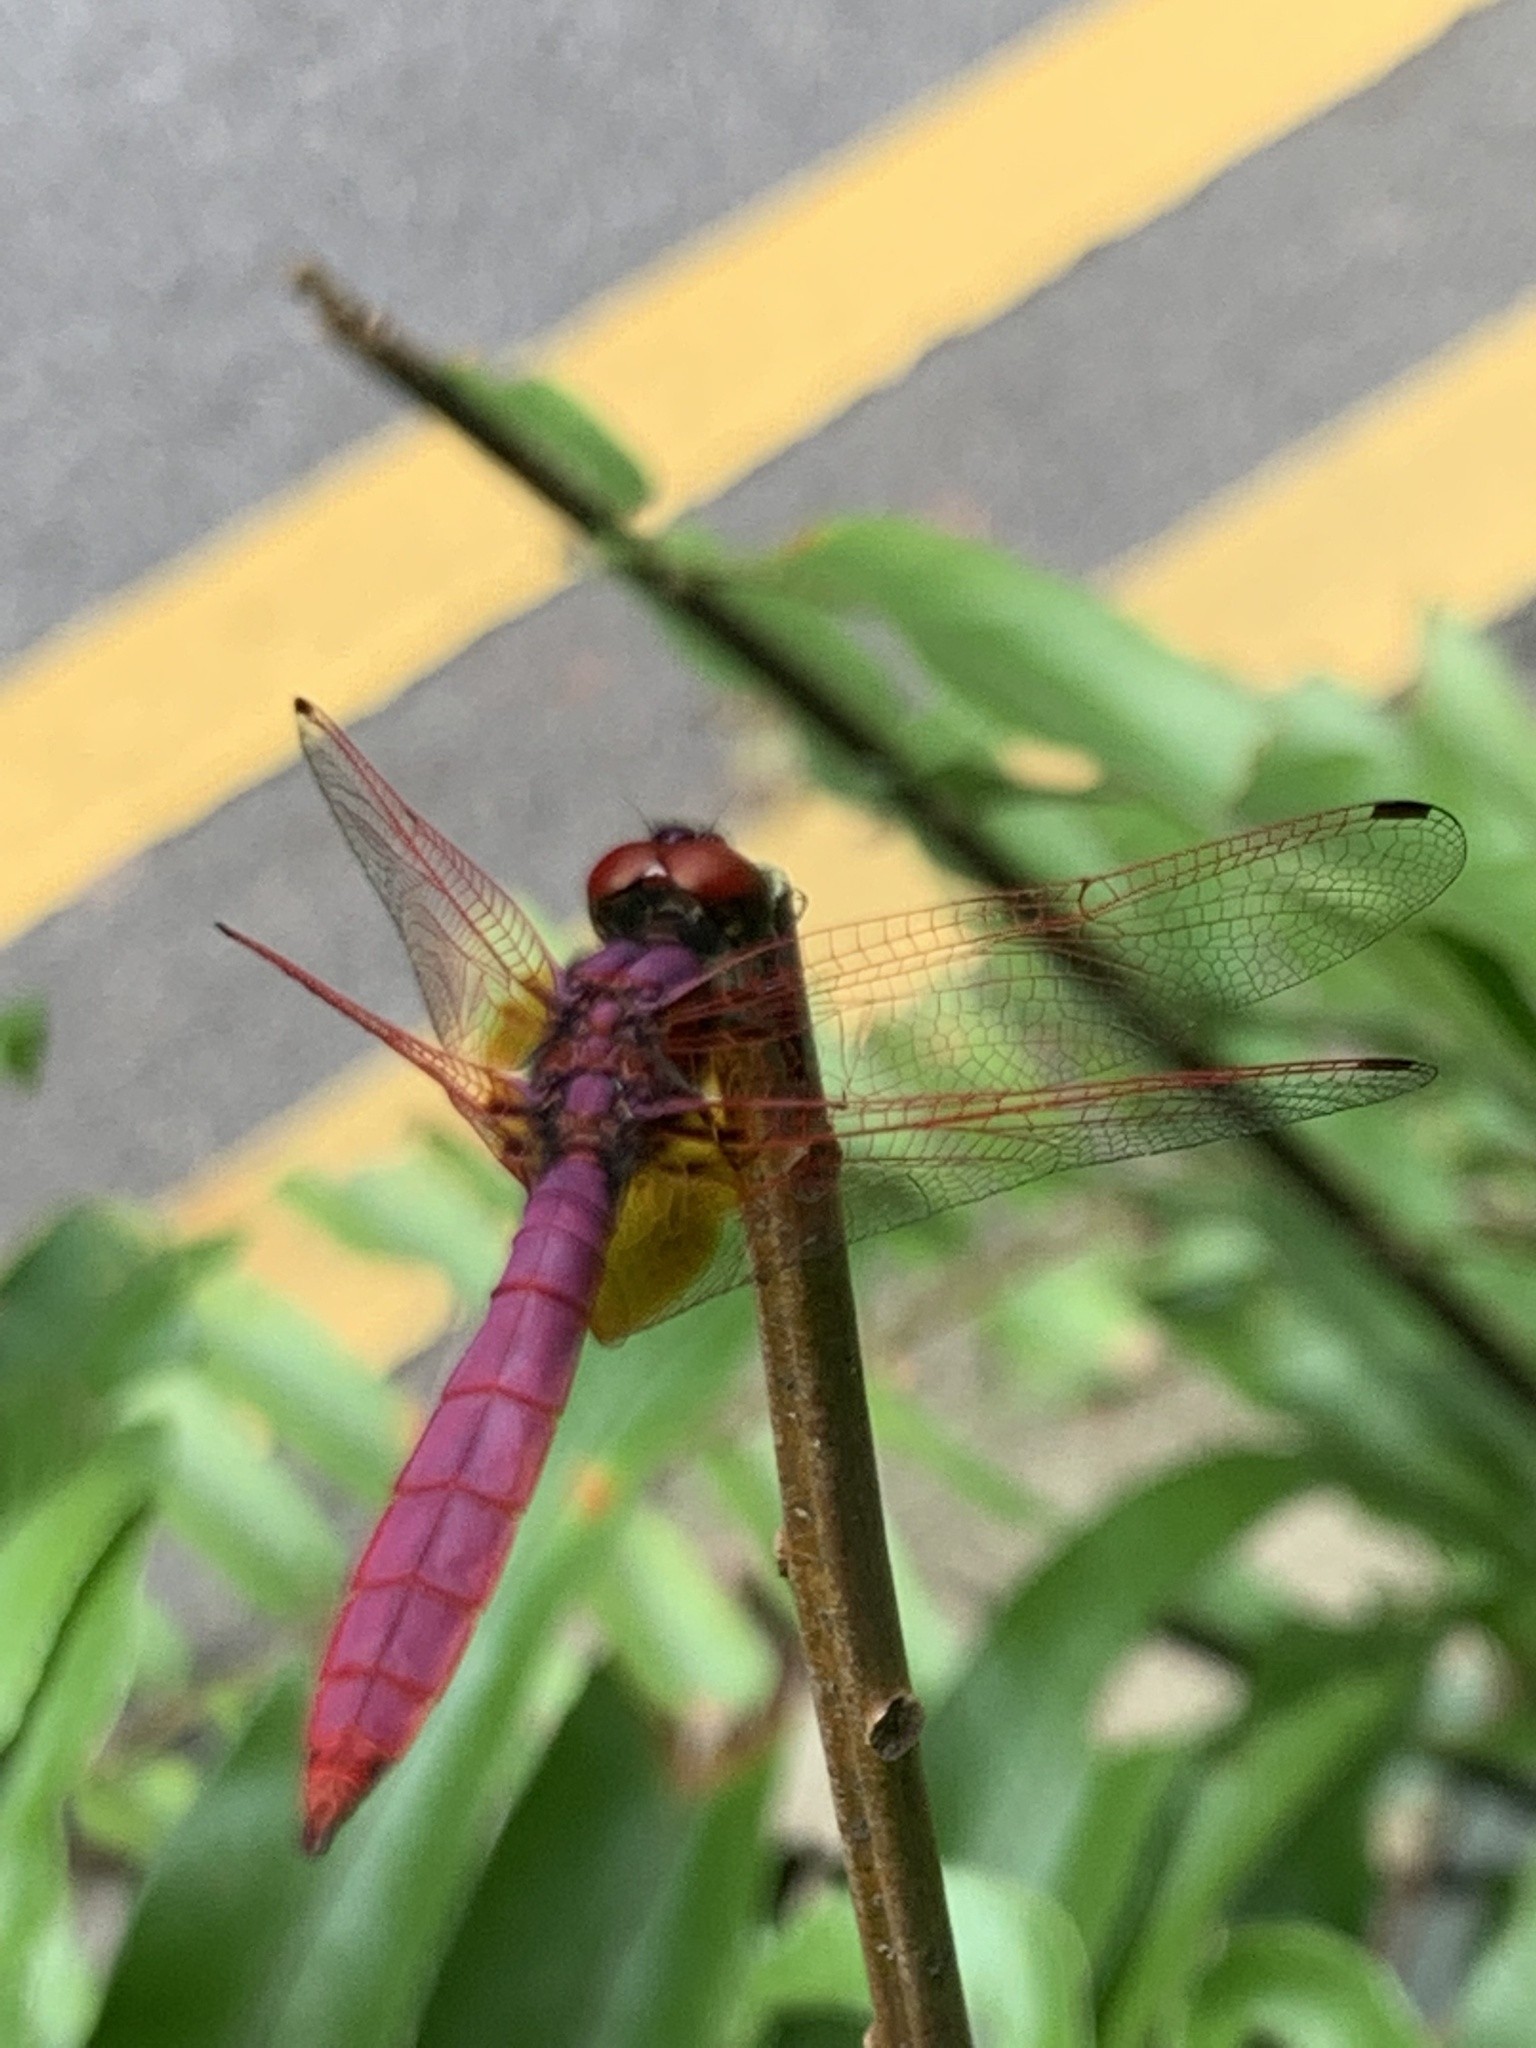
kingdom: Animalia
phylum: Arthropoda
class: Insecta
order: Odonata
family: Libellulidae
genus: Trithemis
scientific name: Trithemis aurora
